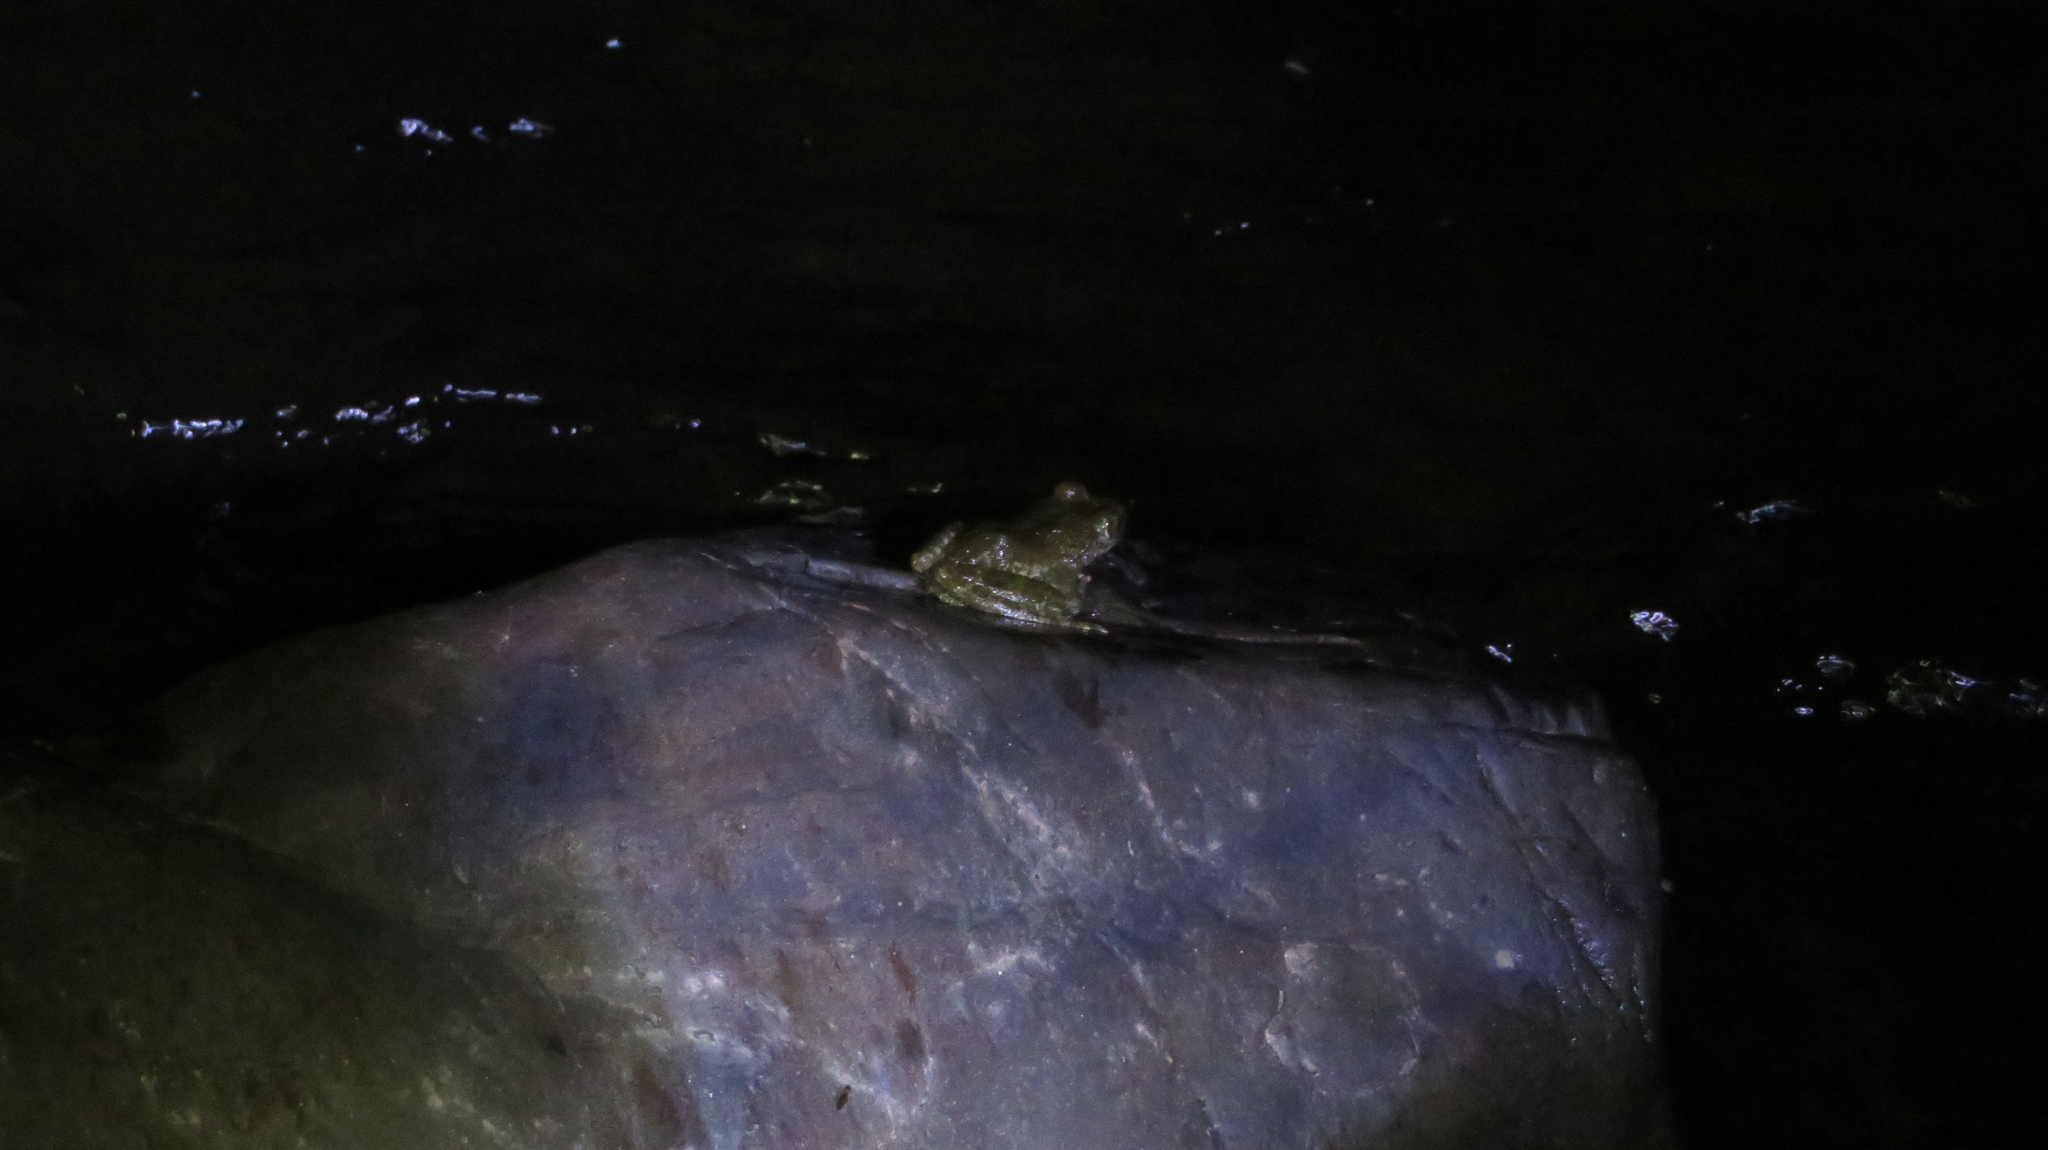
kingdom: Animalia
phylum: Chordata
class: Amphibia
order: Anura
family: Rhacophoridae
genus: Buergeria
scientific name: Buergeria buergeri
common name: Buerger's frog
